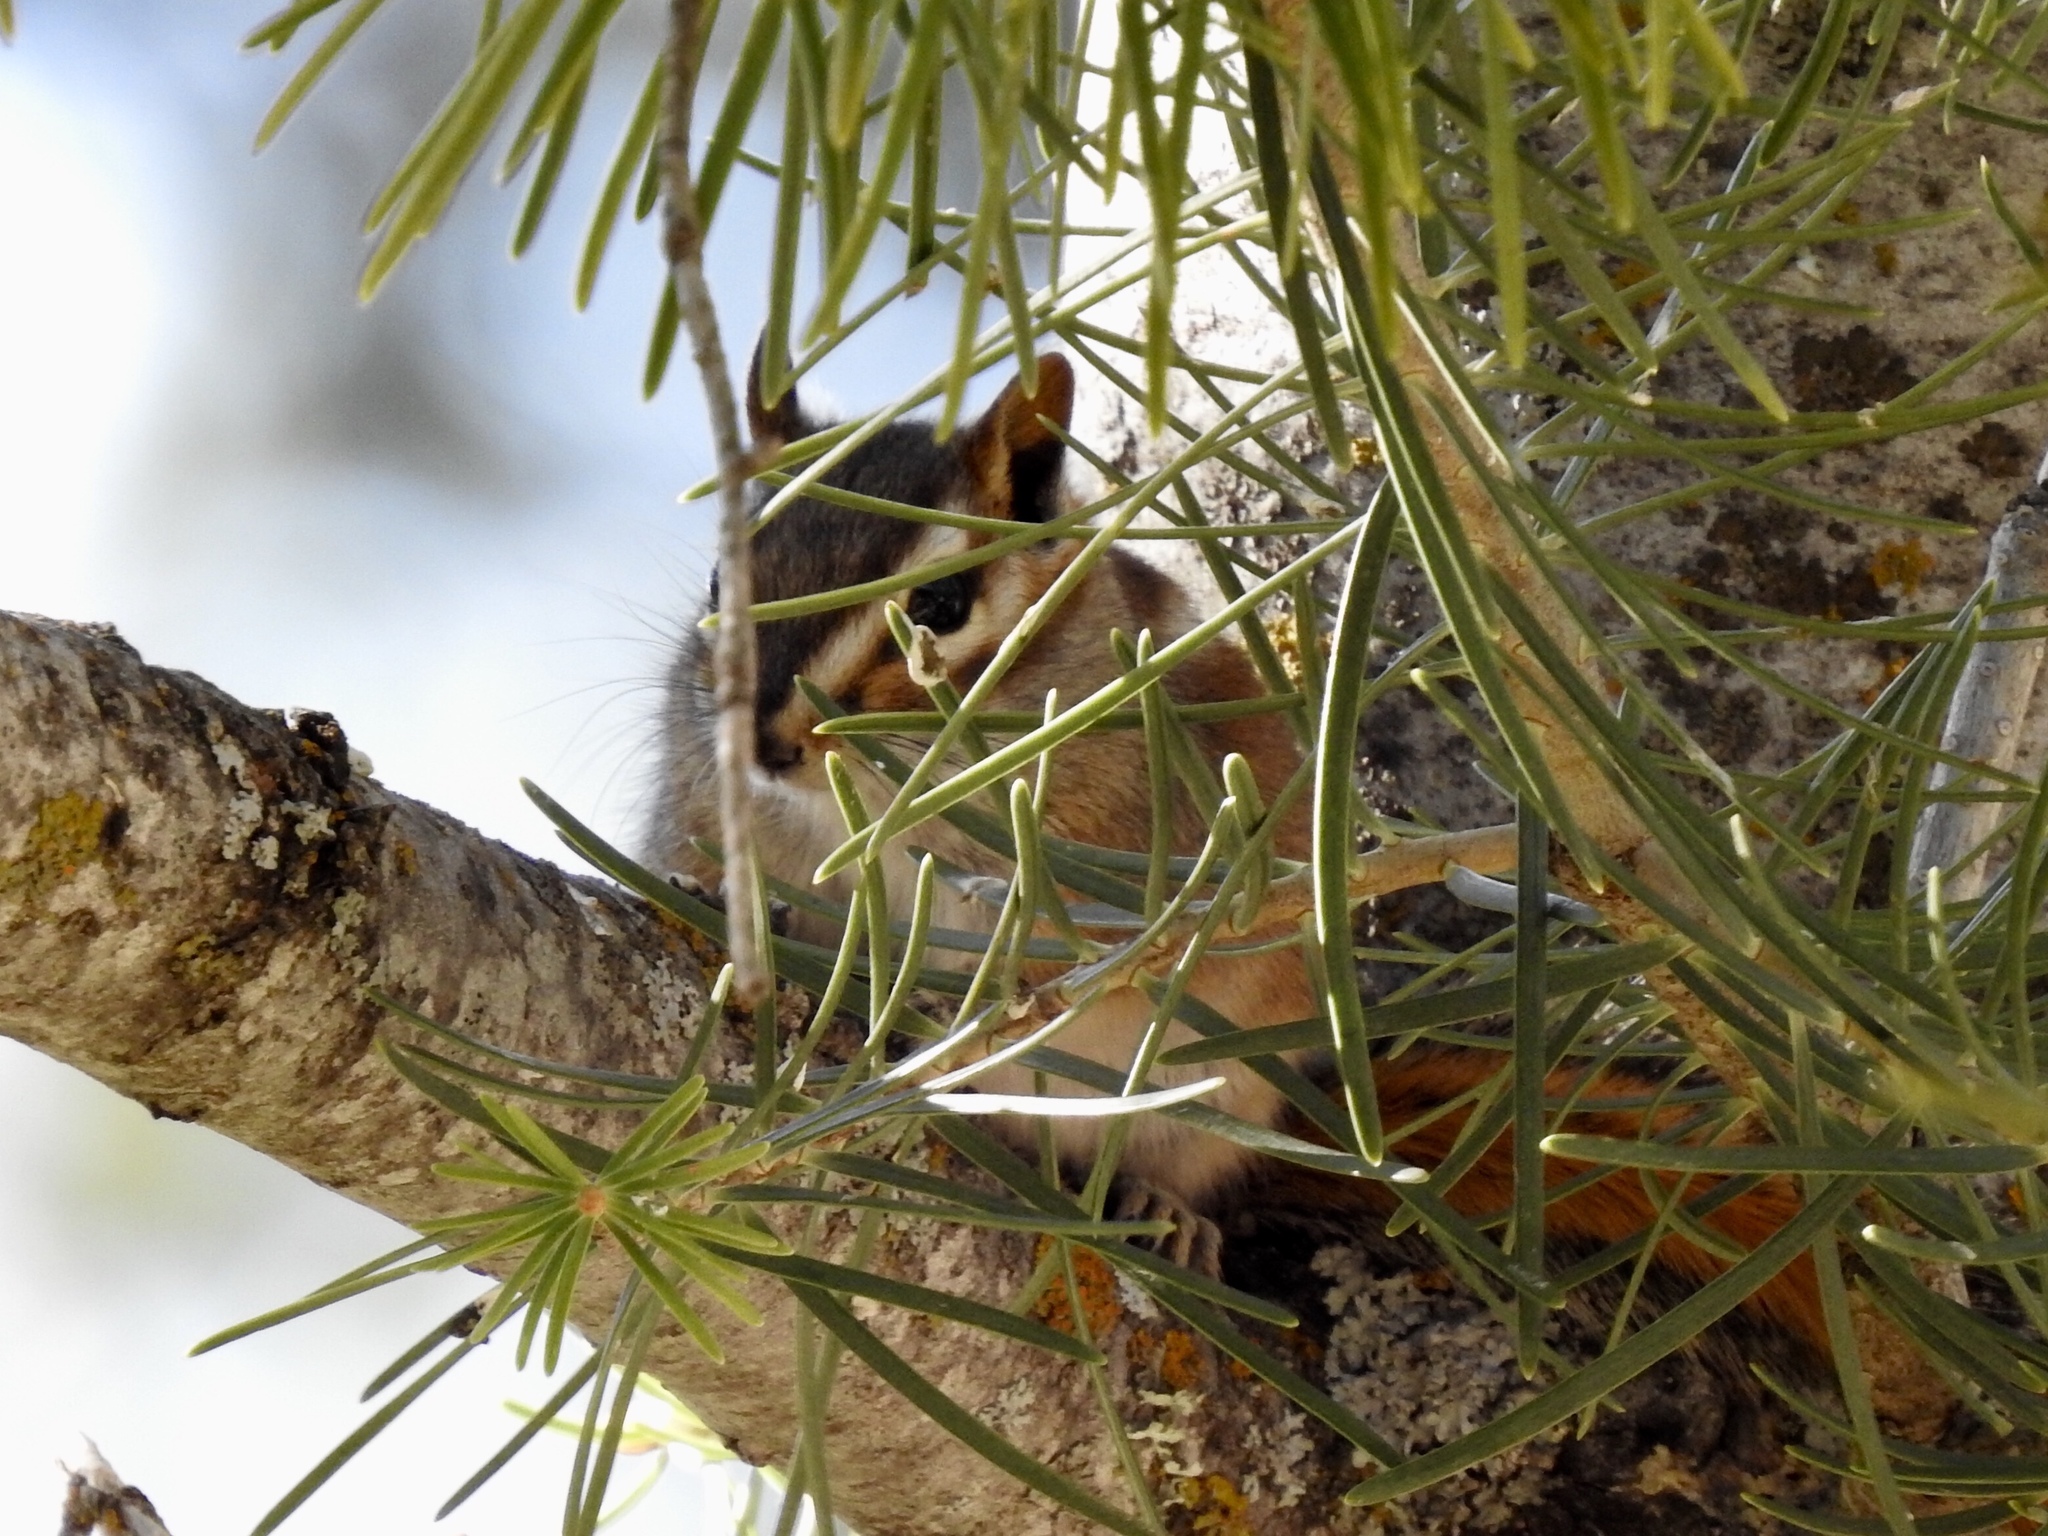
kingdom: Animalia
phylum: Chordata
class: Mammalia
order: Rodentia
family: Sciuridae
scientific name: Sciuridae
